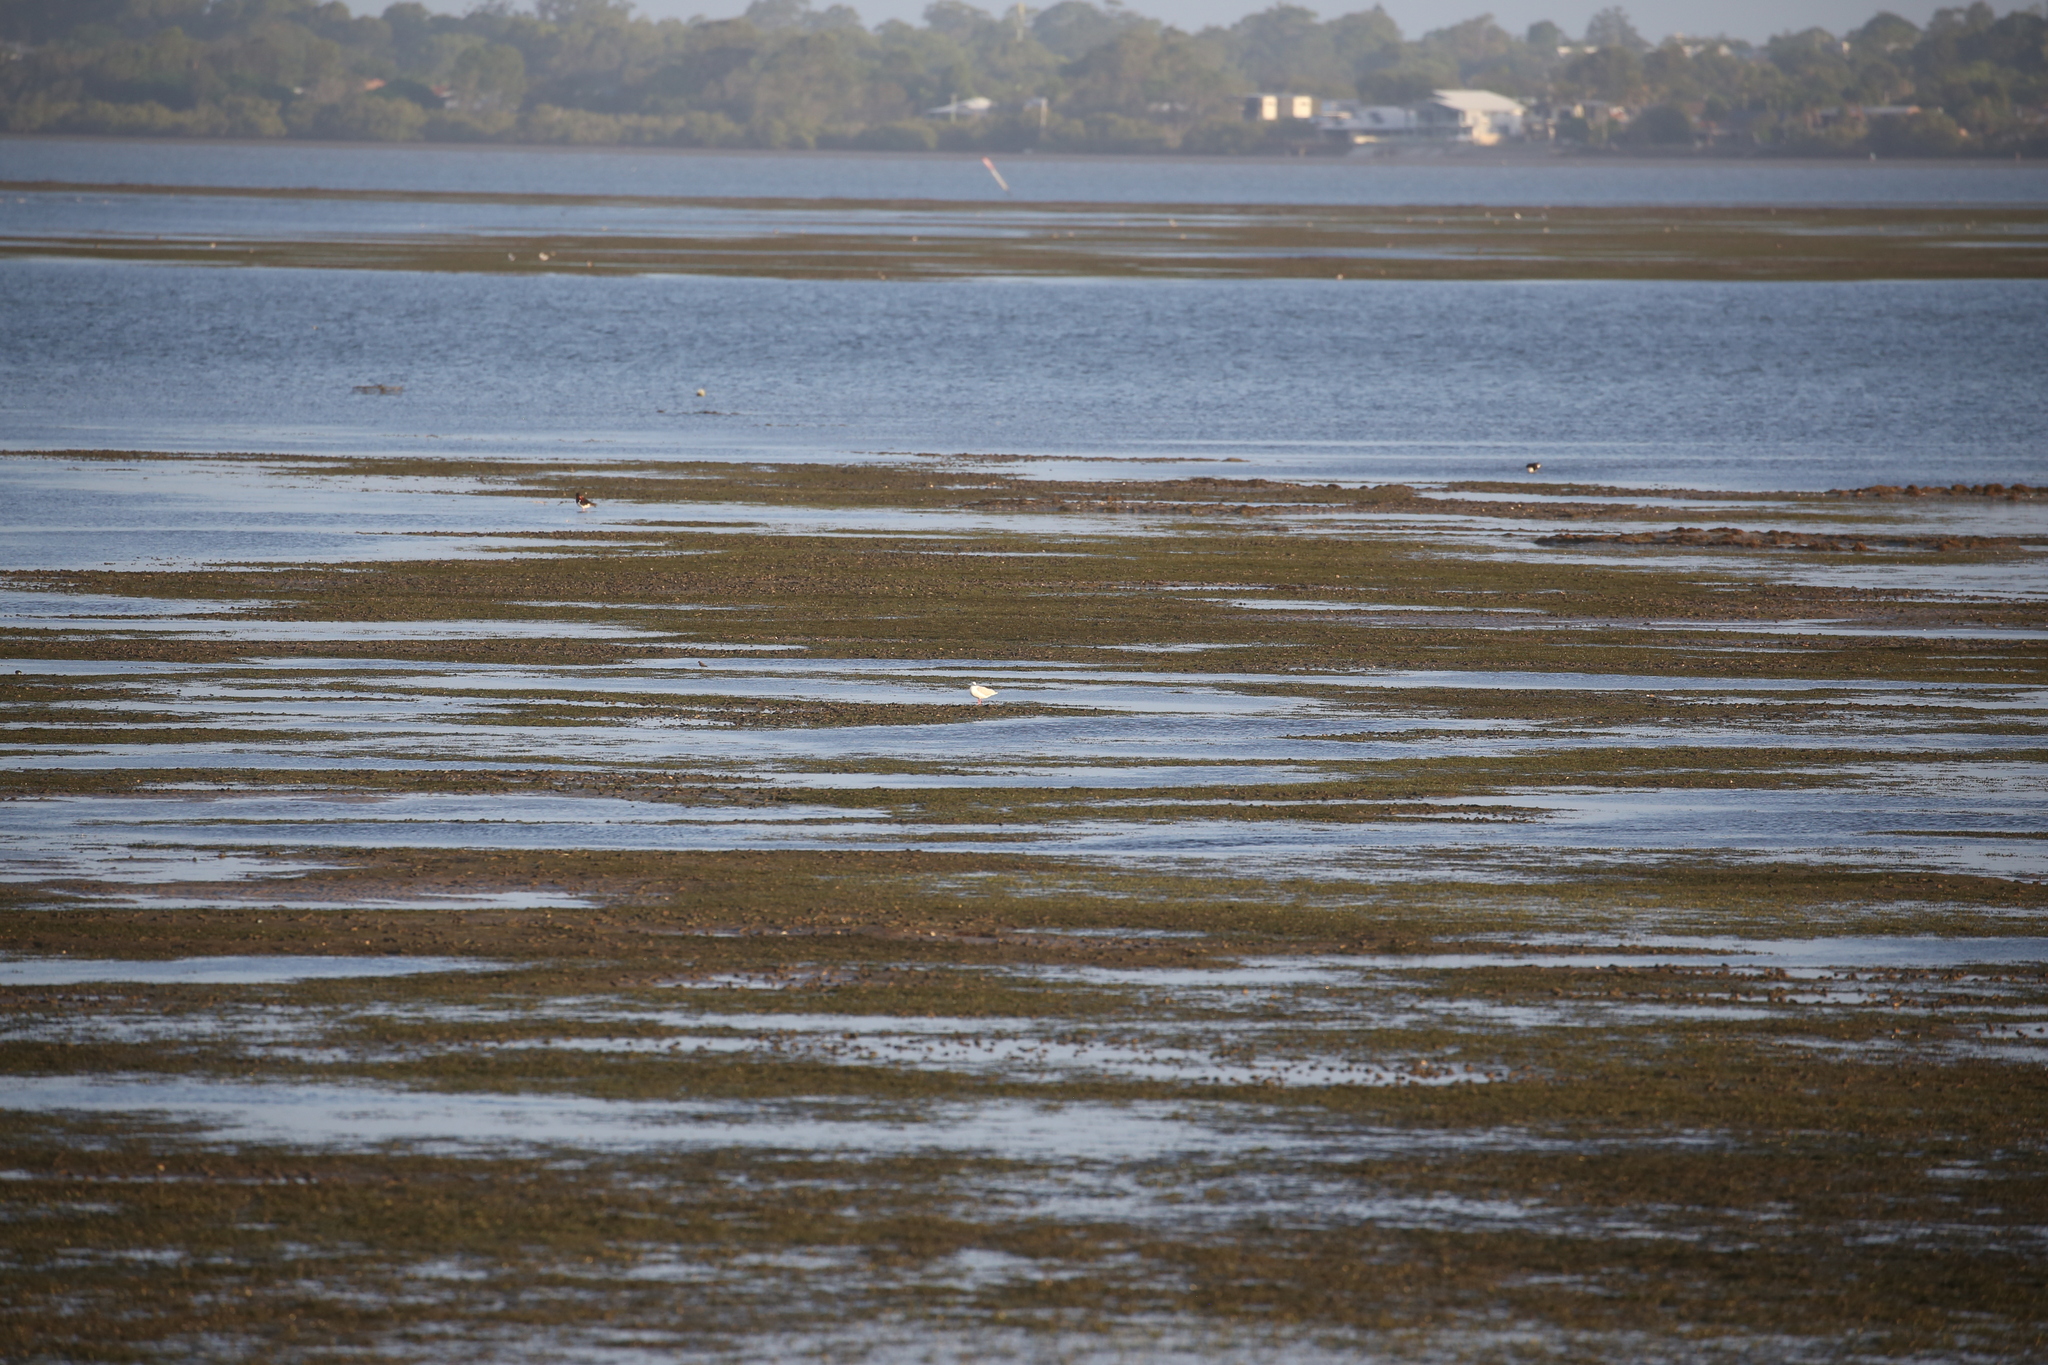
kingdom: Animalia
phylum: Chordata
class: Aves
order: Charadriiformes
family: Haematopodidae
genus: Haematopus
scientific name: Haematopus longirostris
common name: Pied oystercatcher
